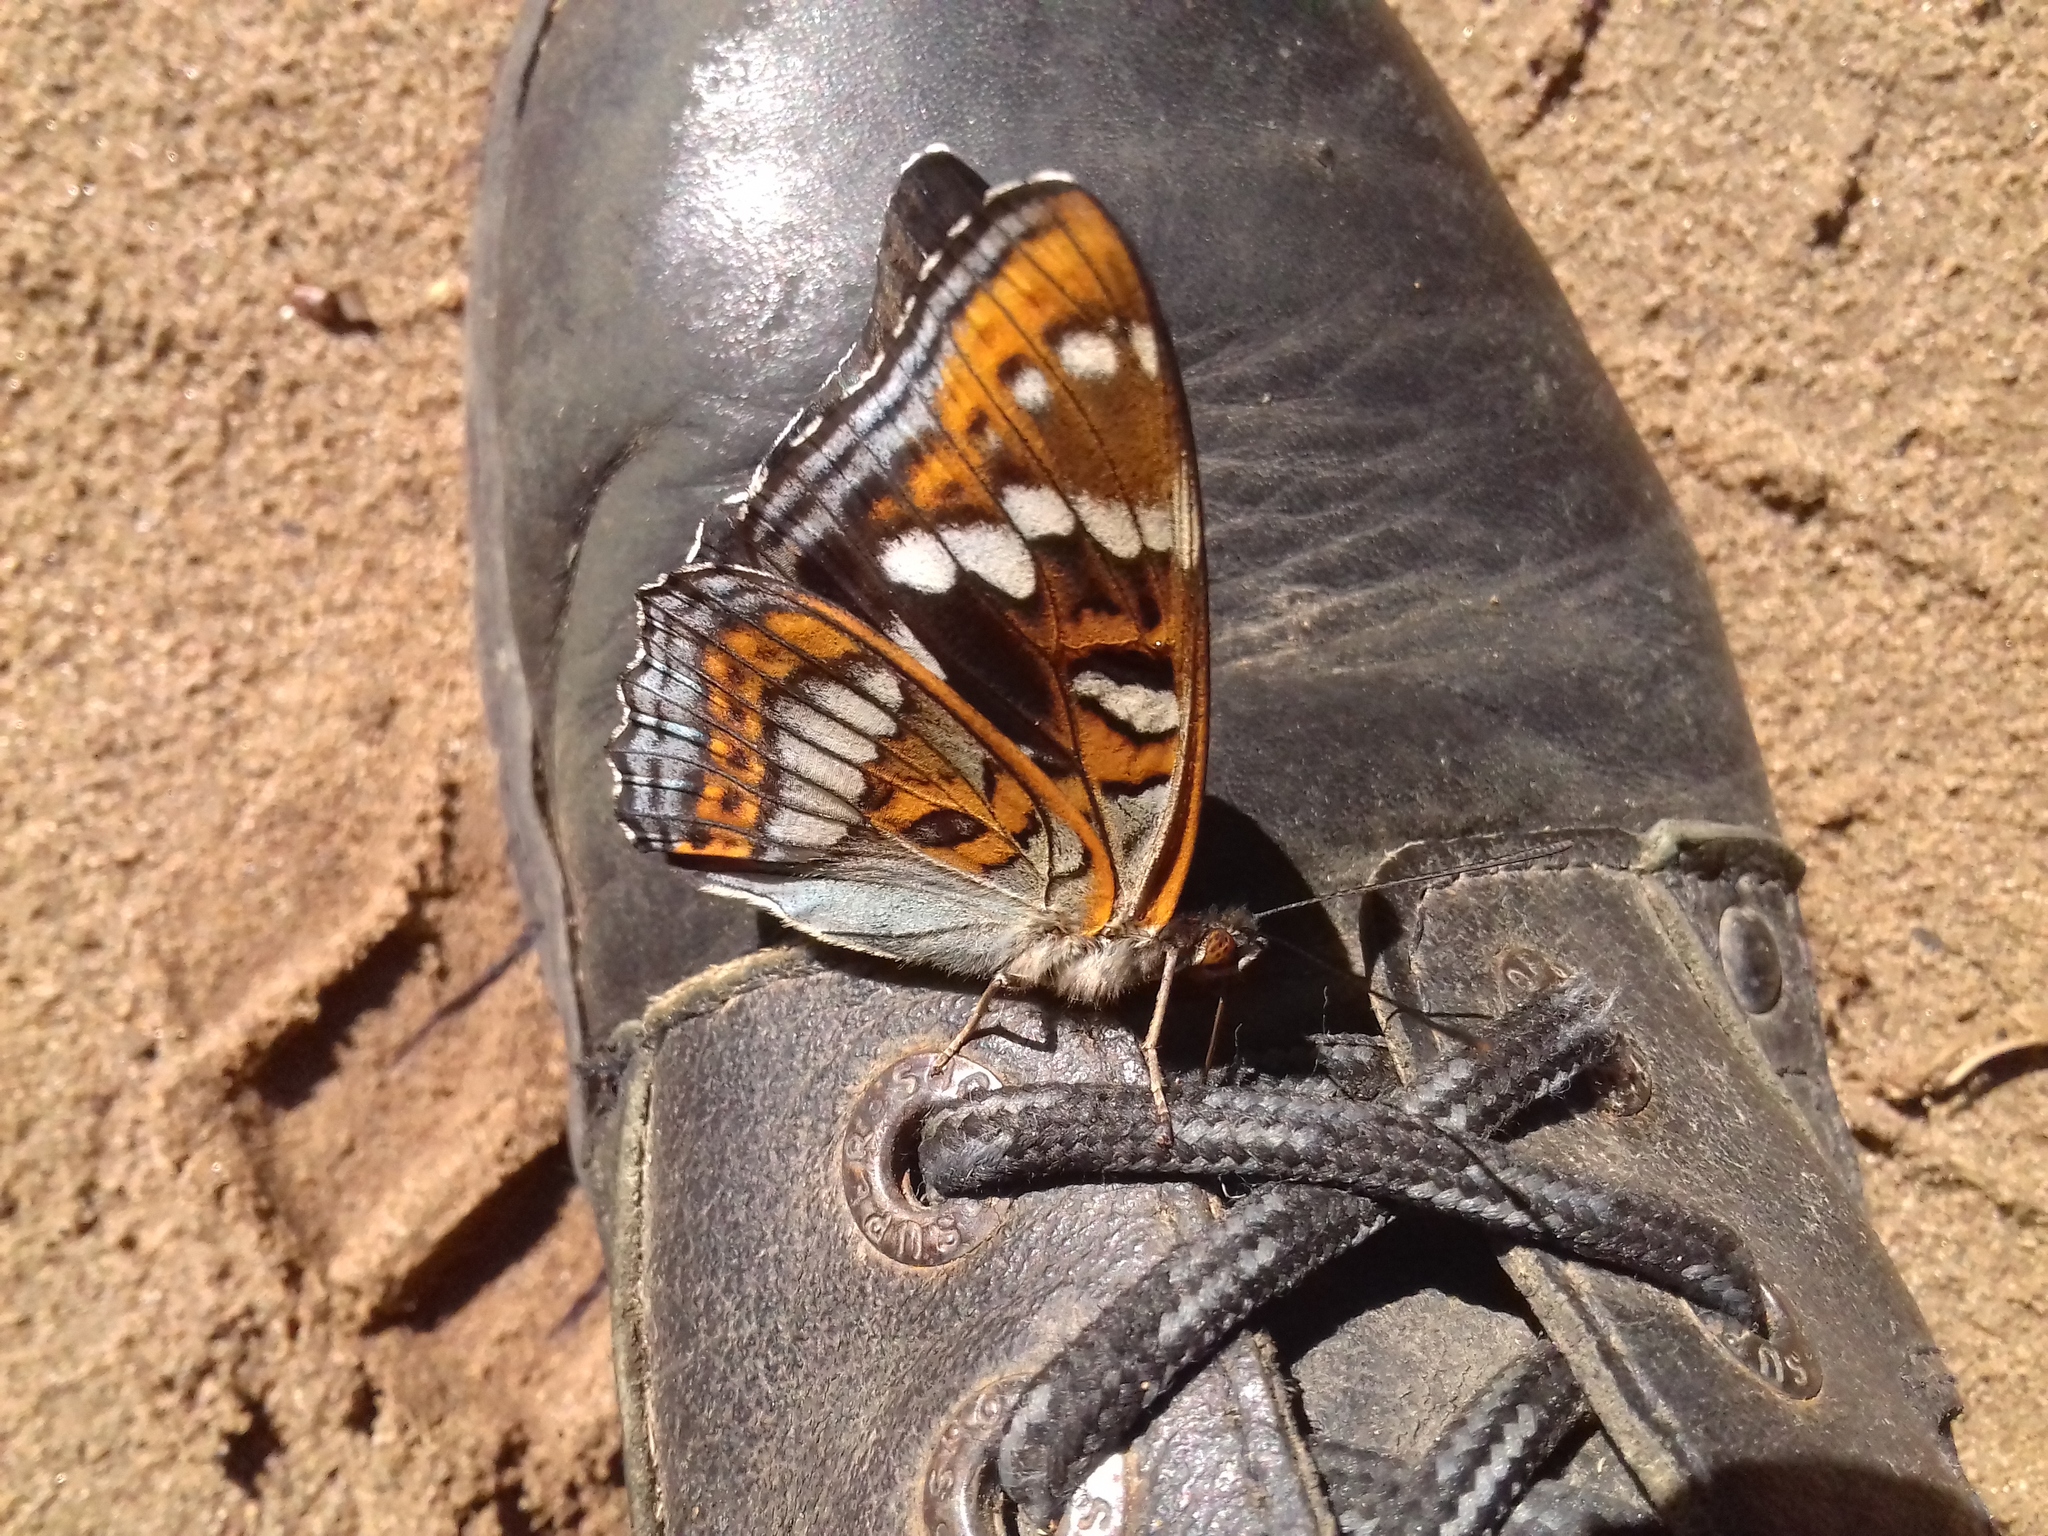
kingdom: Animalia
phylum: Arthropoda
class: Insecta
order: Lepidoptera
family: Nymphalidae
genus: Limenitis
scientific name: Limenitis populi
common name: Poplar admiral
